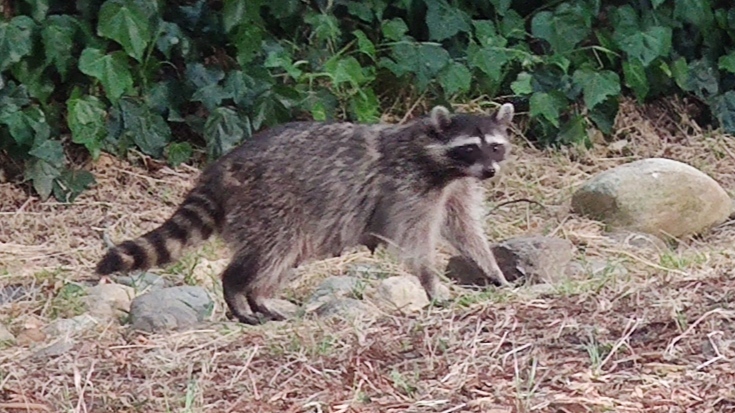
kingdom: Animalia
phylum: Chordata
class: Mammalia
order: Carnivora
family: Procyonidae
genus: Procyon
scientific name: Procyon lotor
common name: Raccoon
